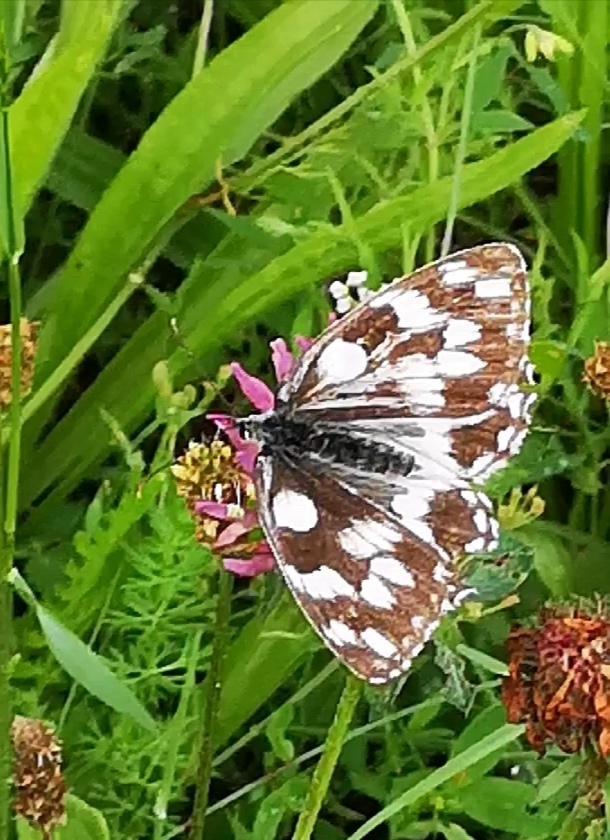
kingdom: Animalia
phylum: Arthropoda
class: Insecta
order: Lepidoptera
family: Nymphalidae
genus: Melanargia
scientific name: Melanargia galathea
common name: Marbled white
